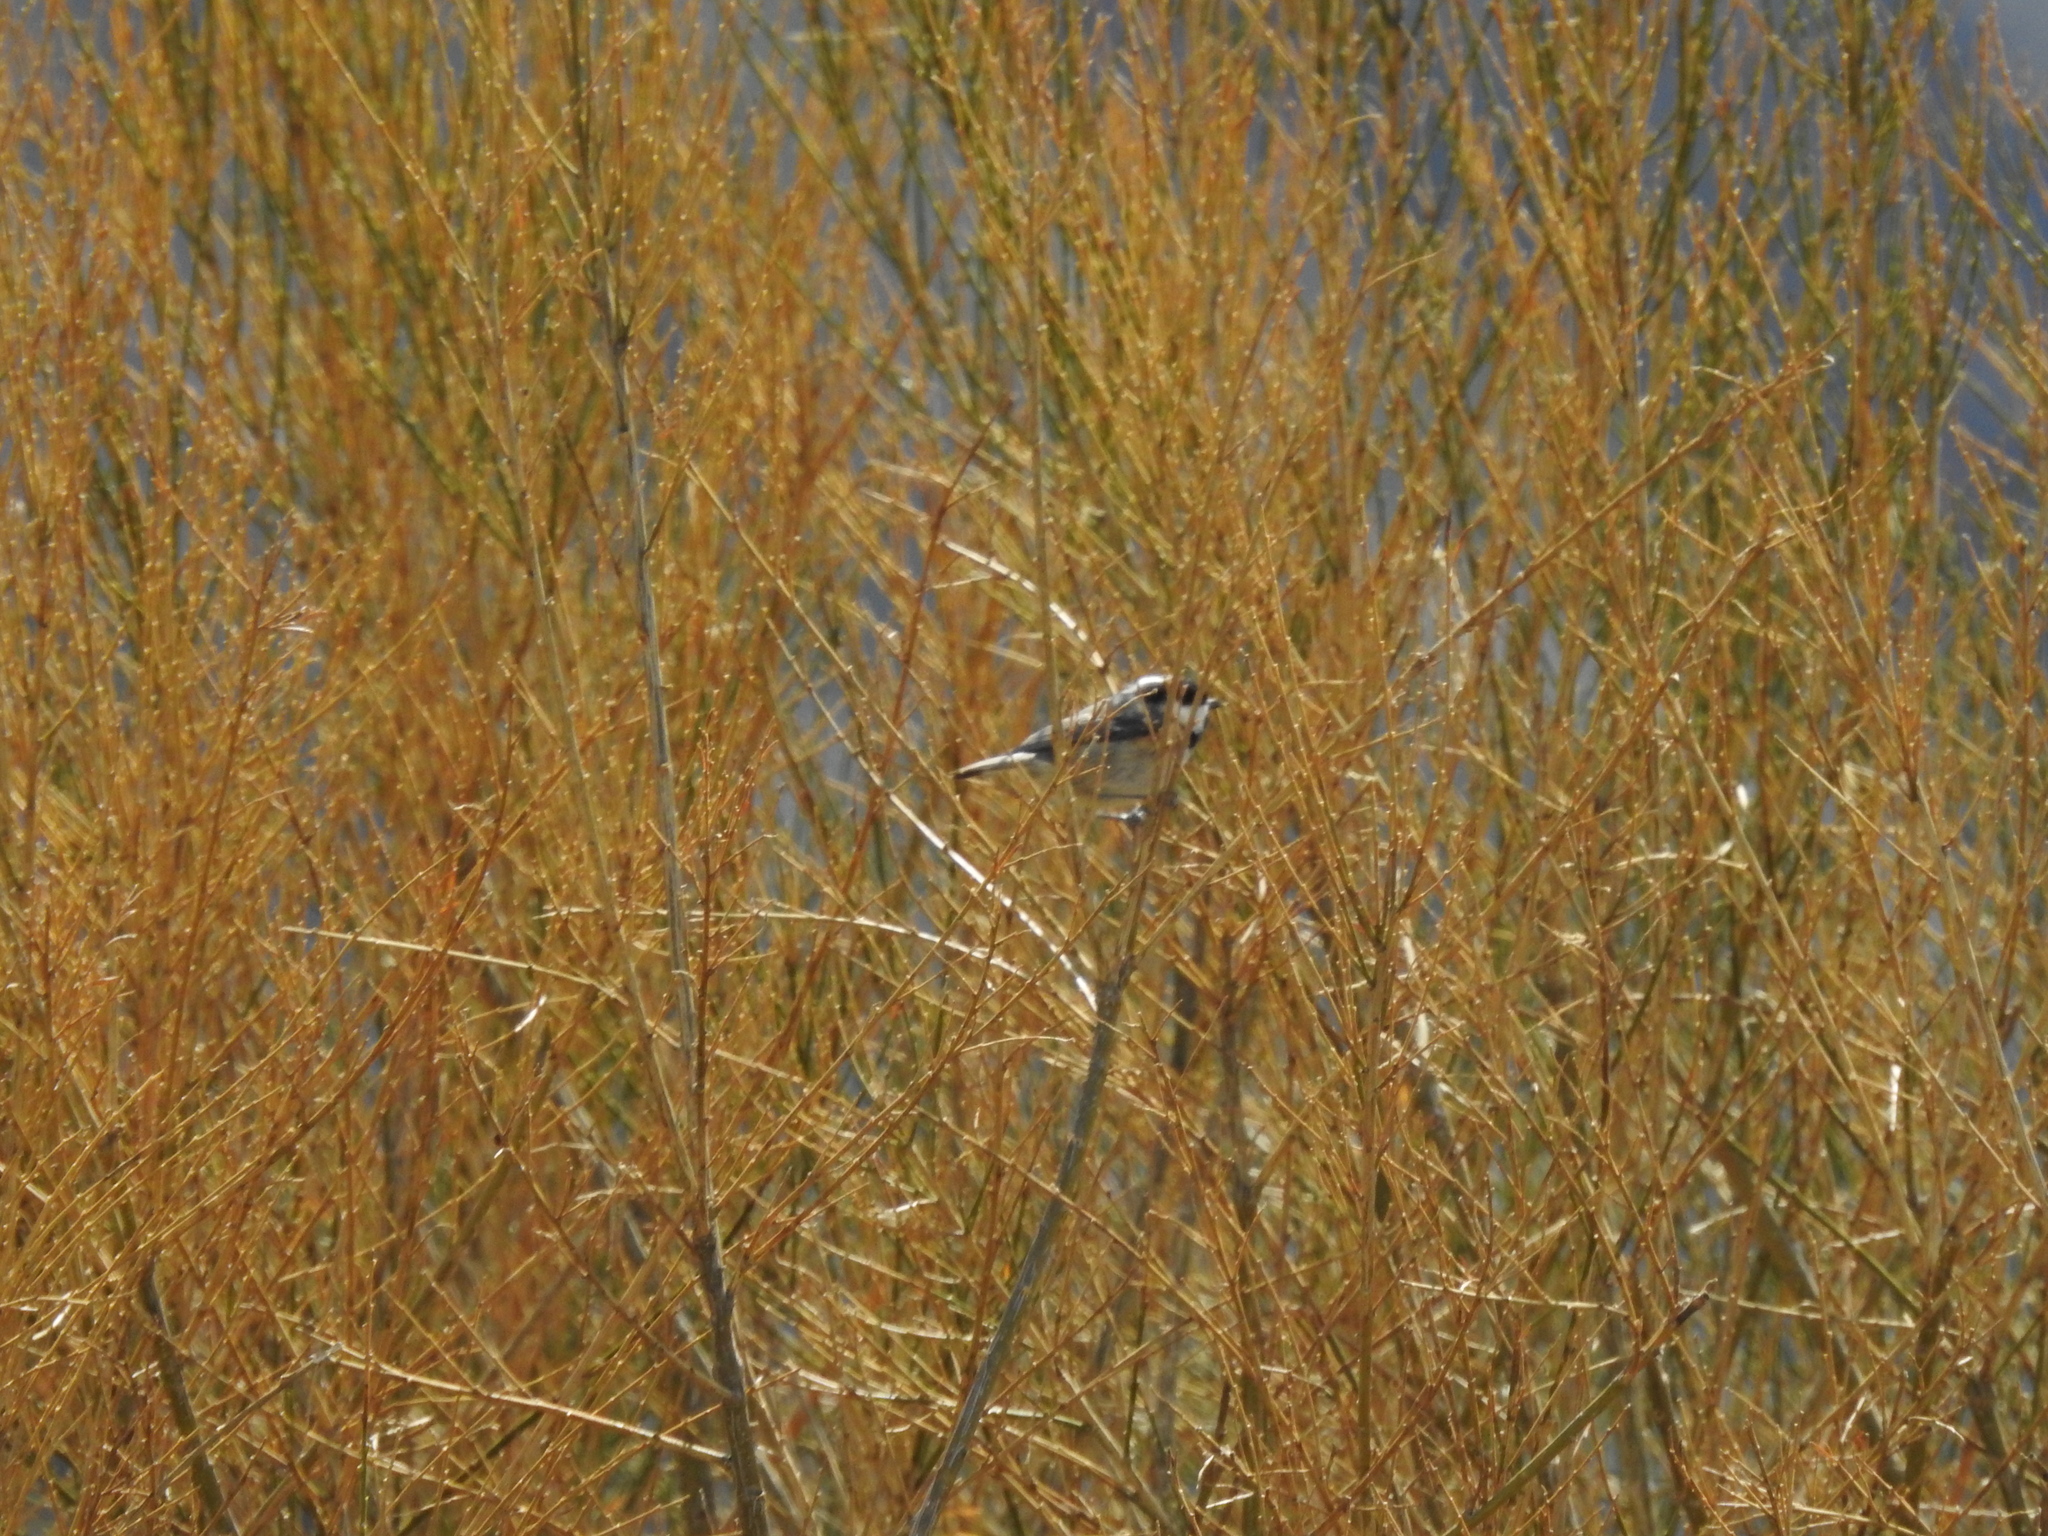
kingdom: Animalia
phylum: Chordata
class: Aves
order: Passeriformes
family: Paridae
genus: Periparus
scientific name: Periparus ater
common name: Coal tit
